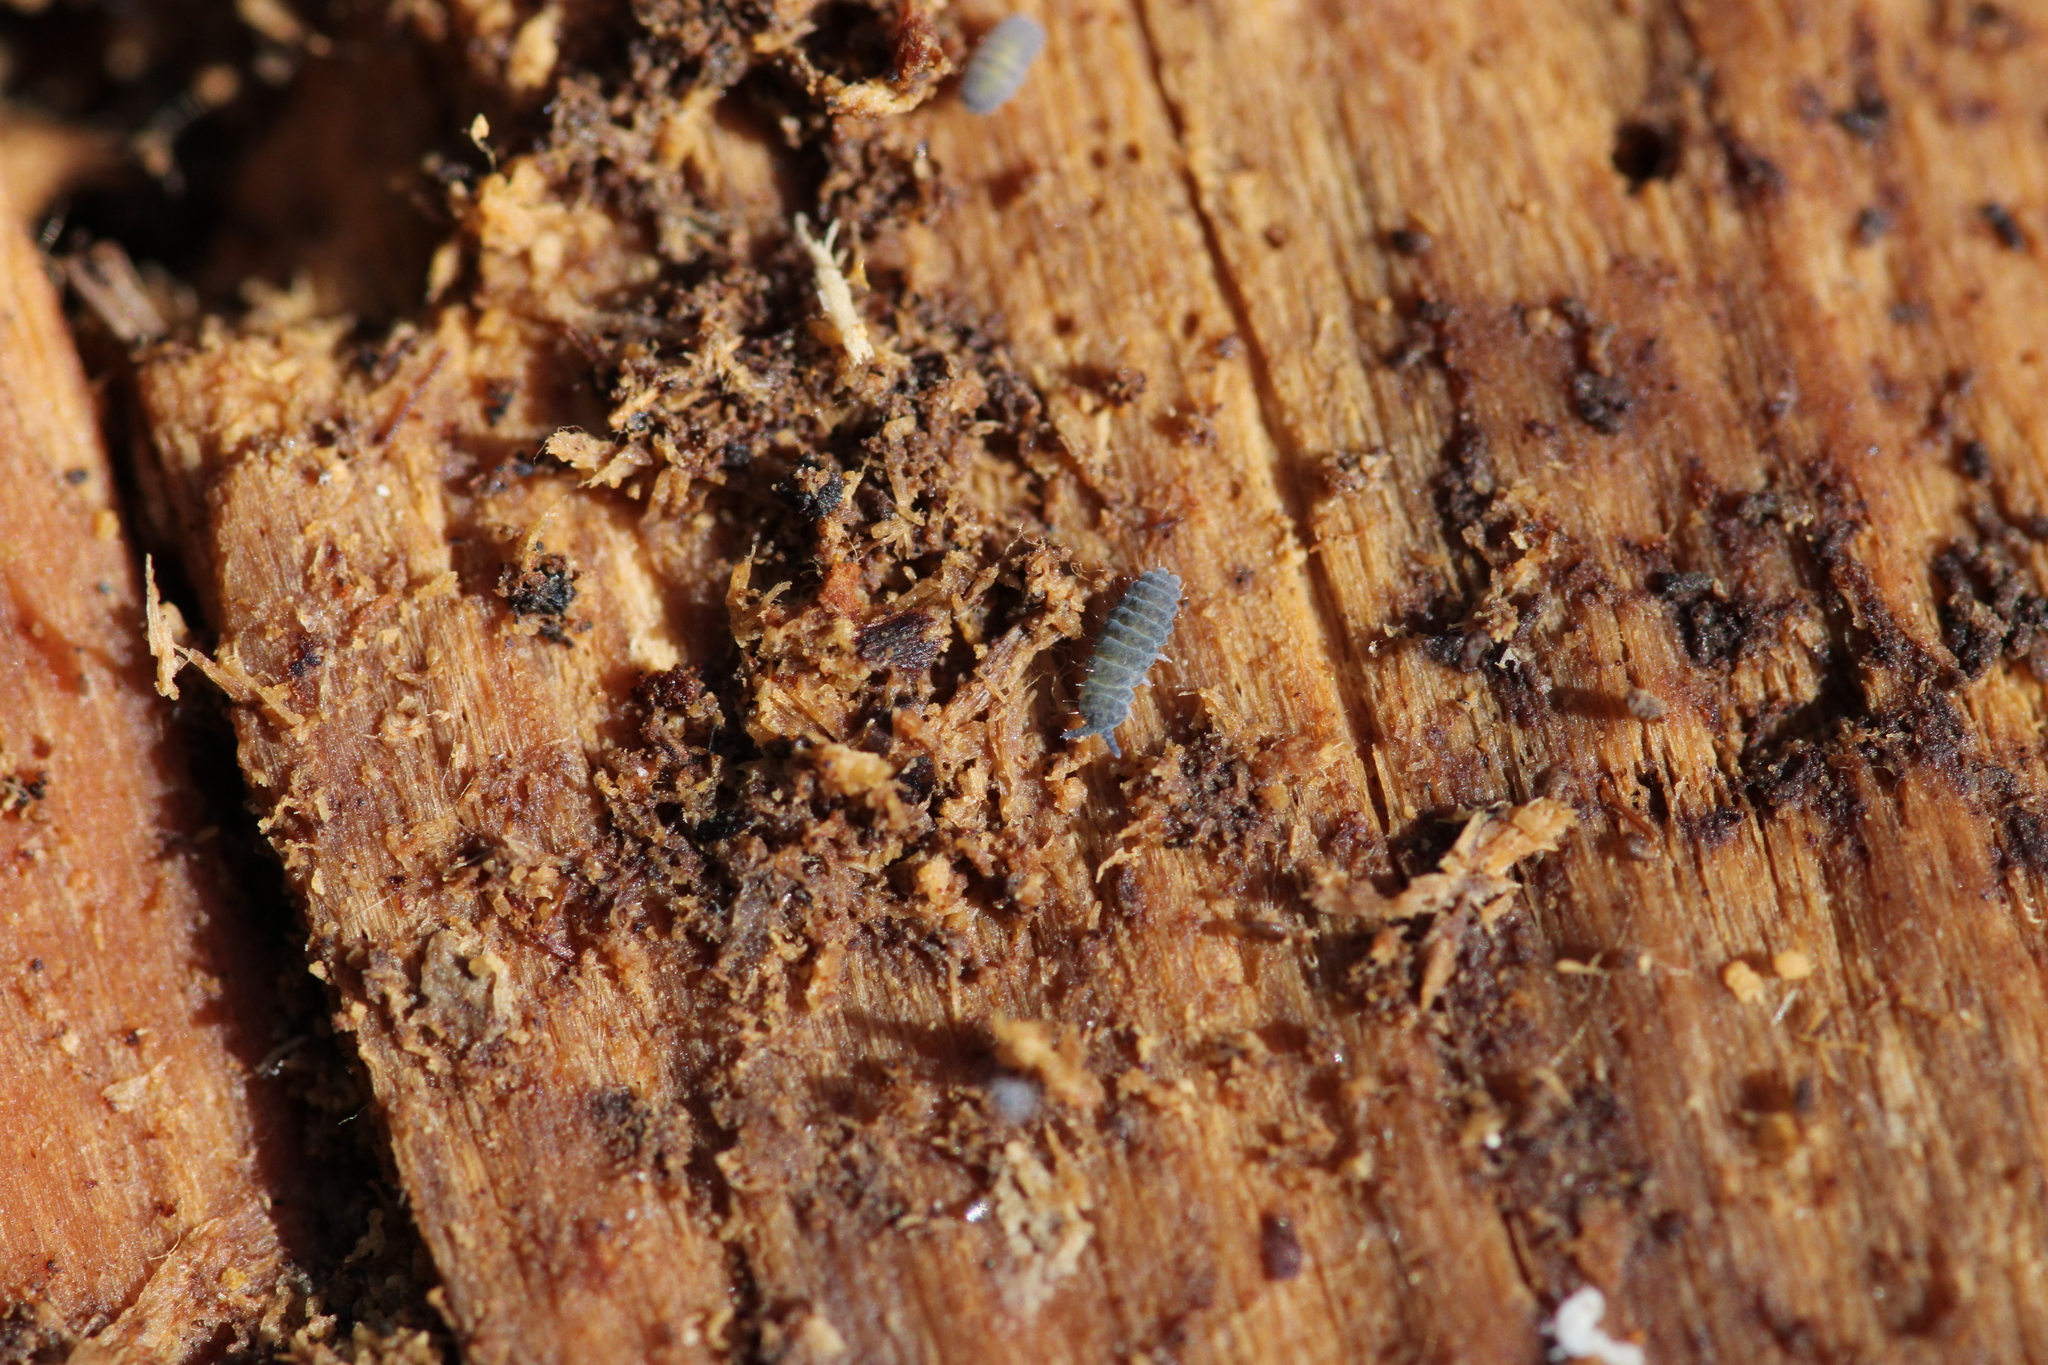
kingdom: Animalia
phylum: Arthropoda
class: Collembola
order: Poduromorpha
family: Neanuridae
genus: Neanura
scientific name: Neanura muscorum
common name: Springtail
